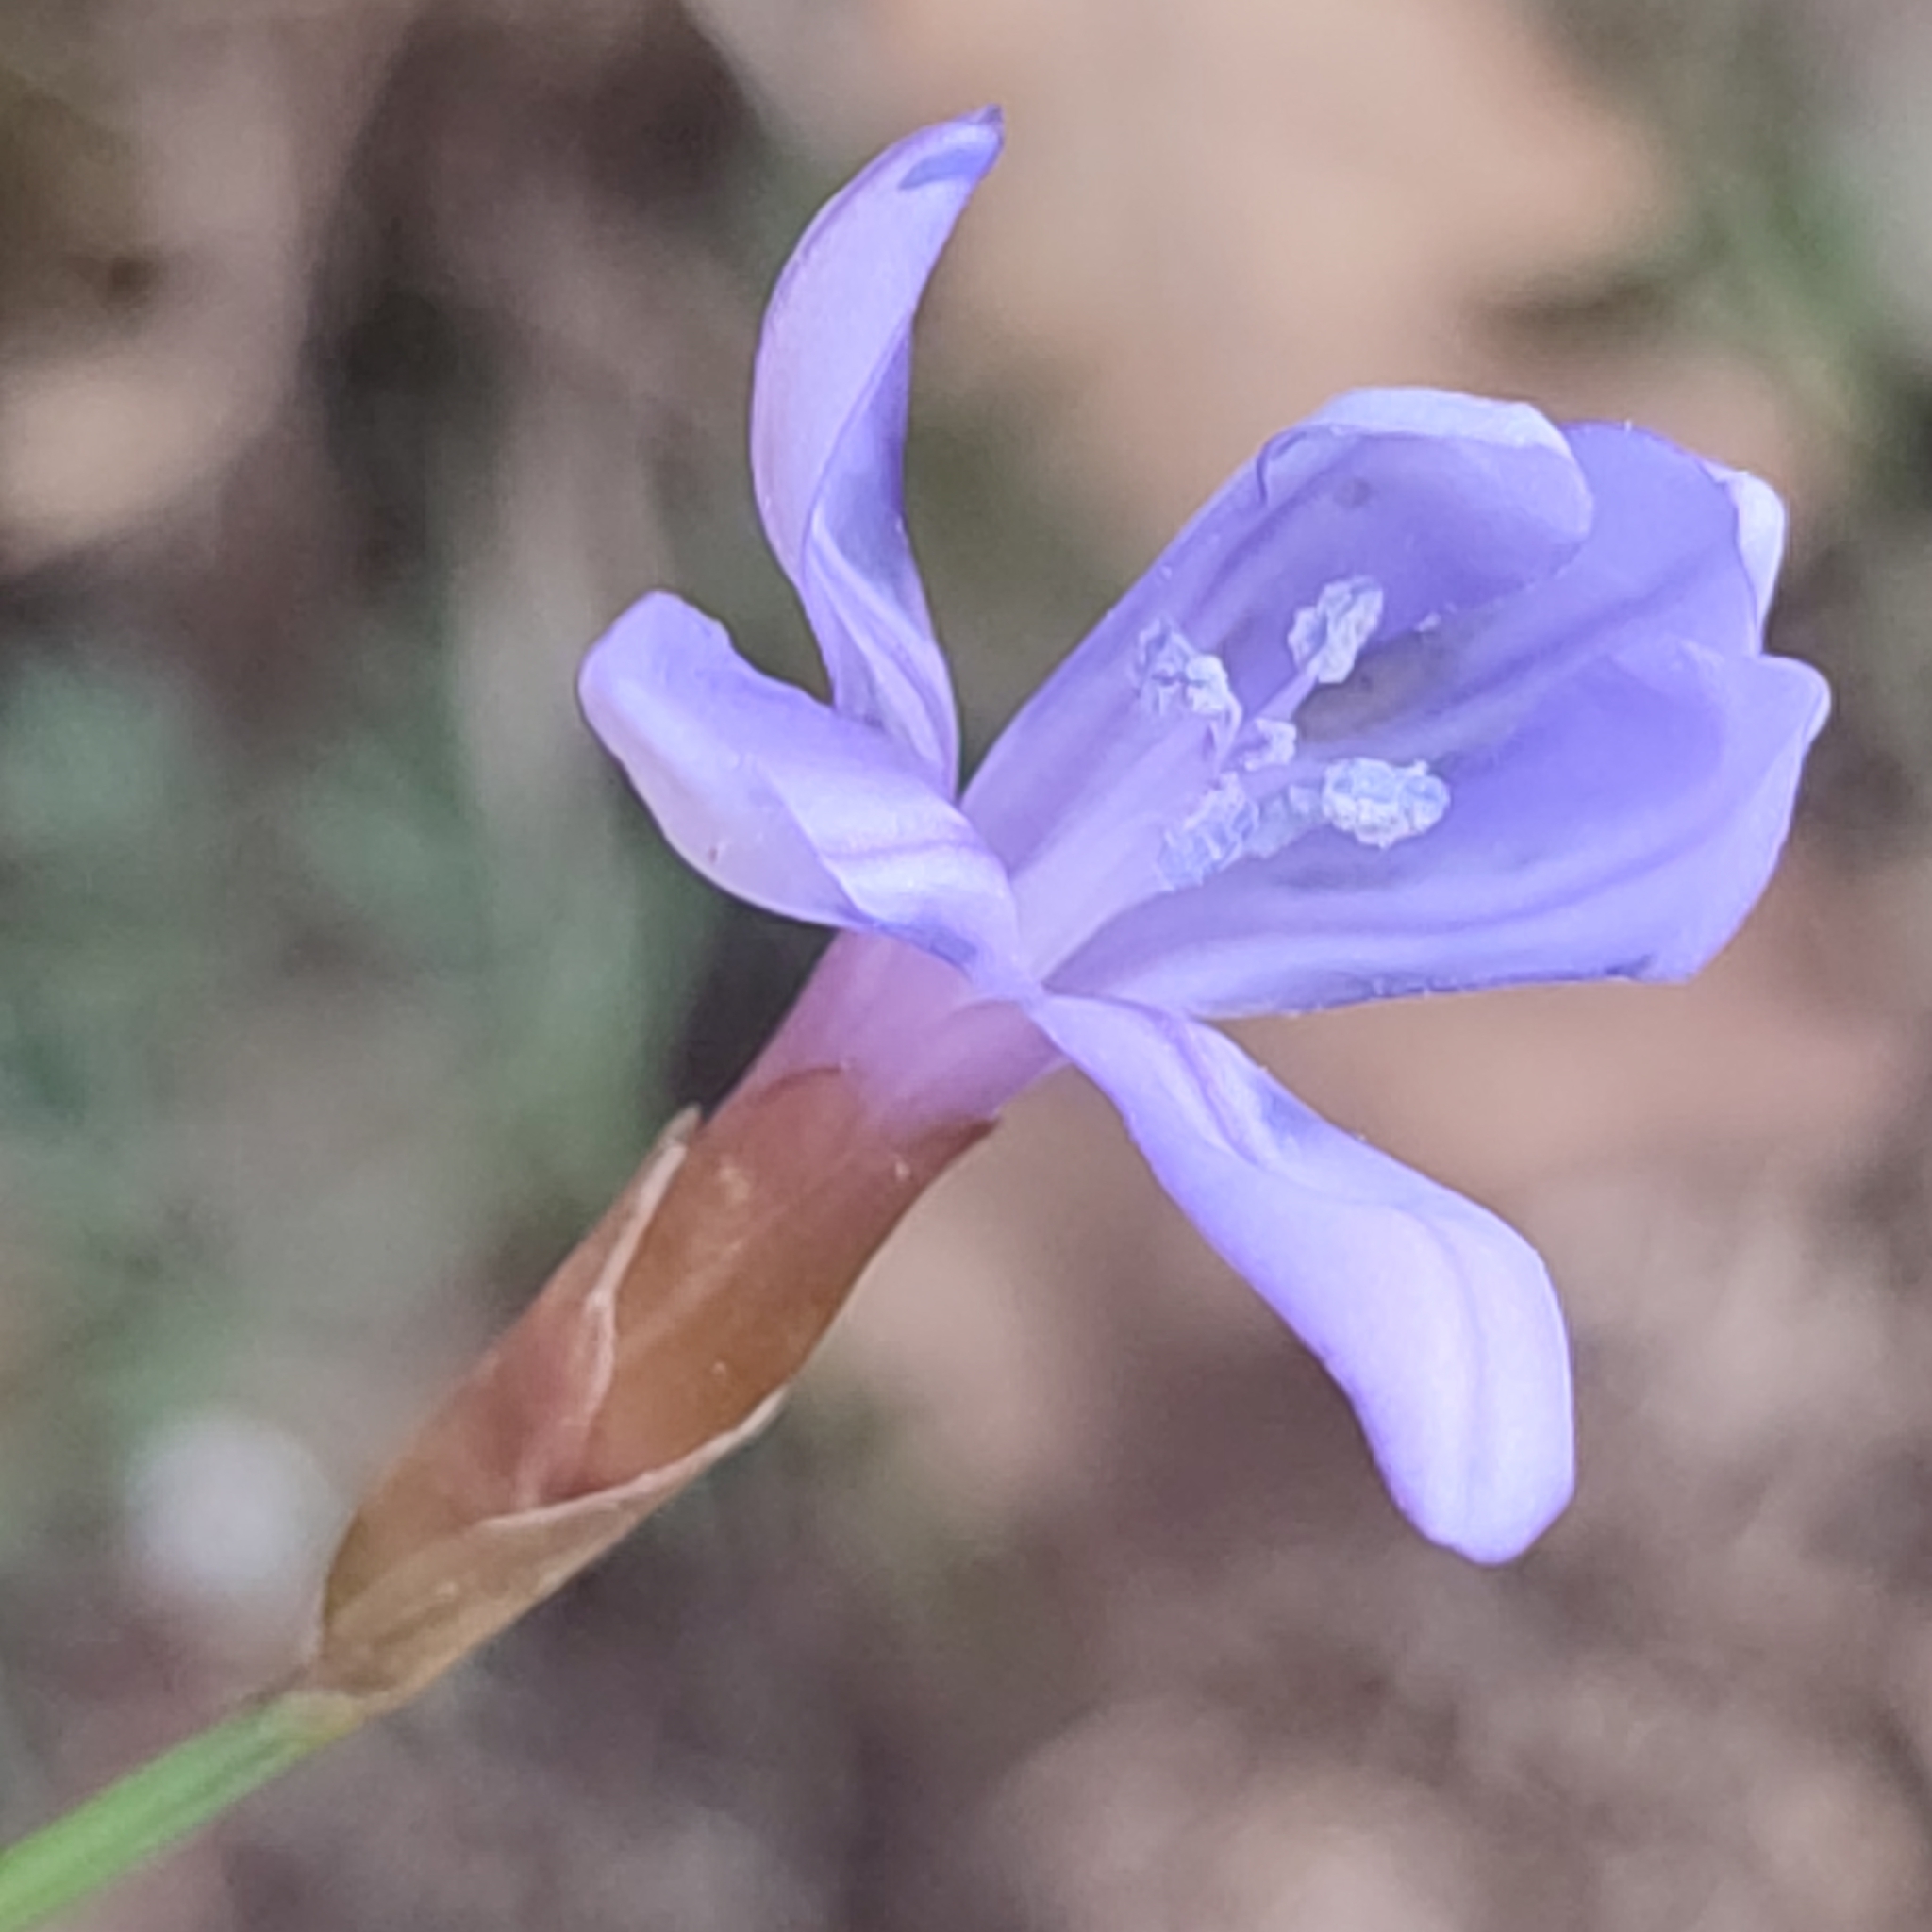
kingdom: Plantae
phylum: Tracheophyta
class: Liliopsida
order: Asparagales
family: Asparagaceae
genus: Aphyllanthes
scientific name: Aphyllanthes monspeliensis
